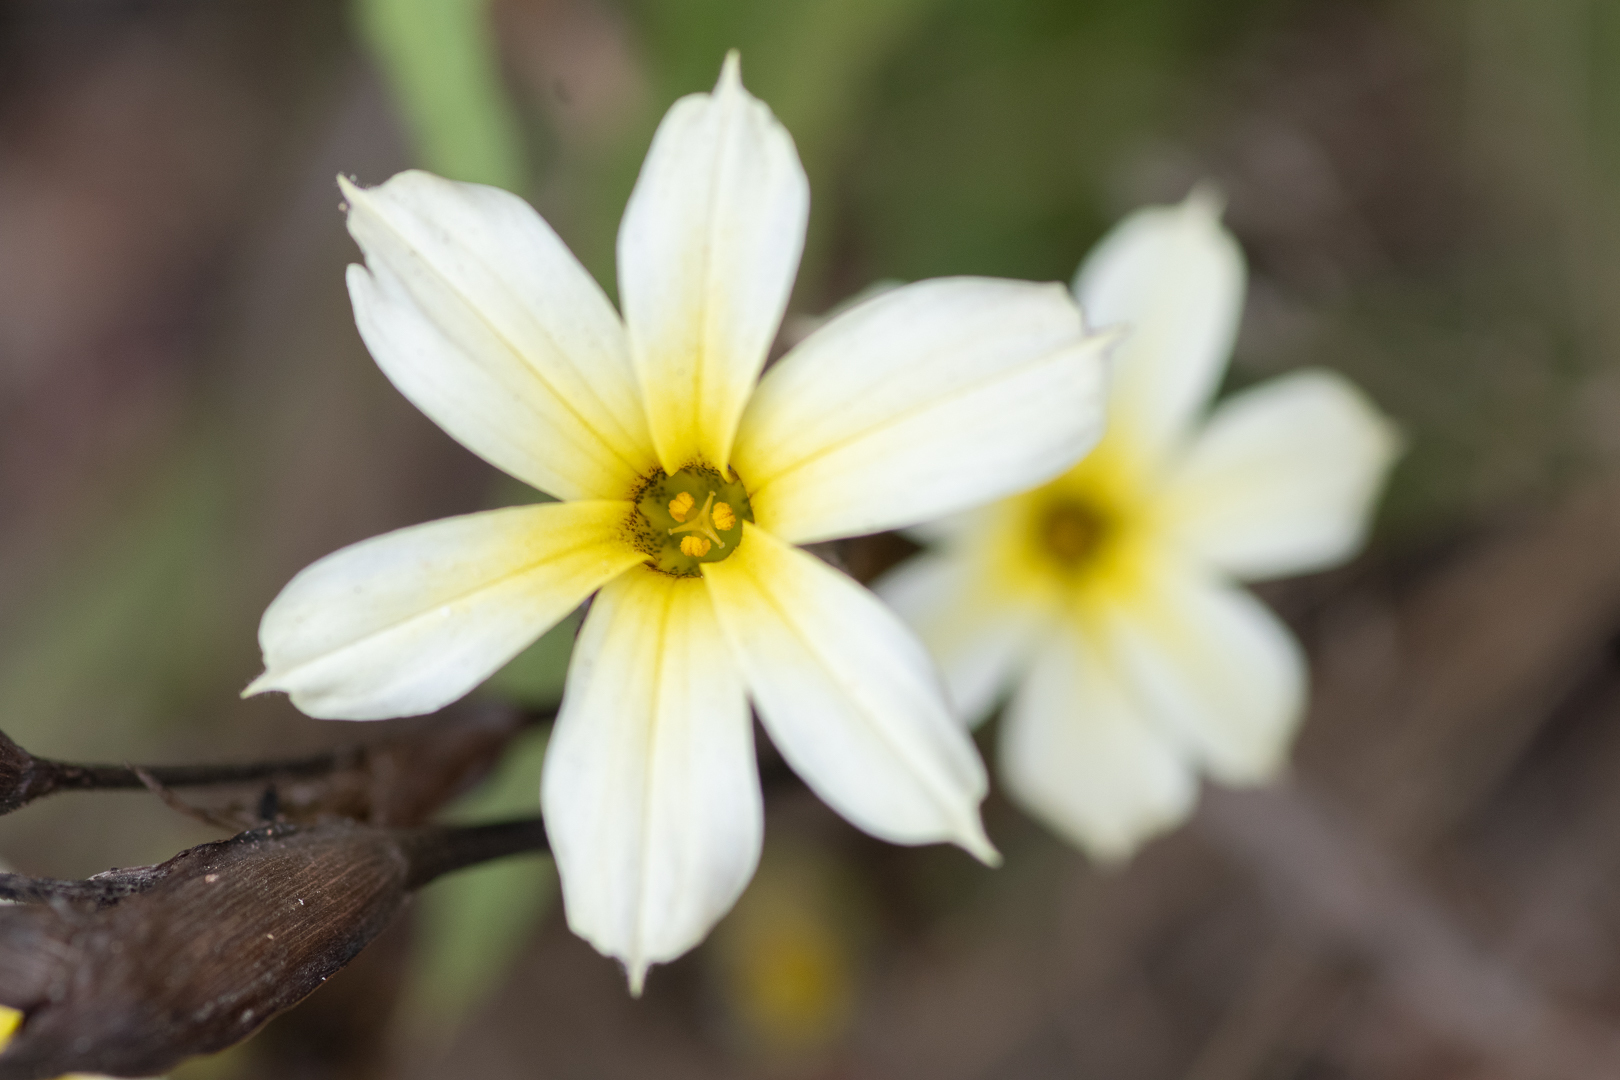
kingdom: Plantae
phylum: Tracheophyta
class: Liliopsida
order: Asparagales
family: Iridaceae
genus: Sisyrinchium
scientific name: Sisyrinchium striatum
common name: Pale yellow-eyed-grass
